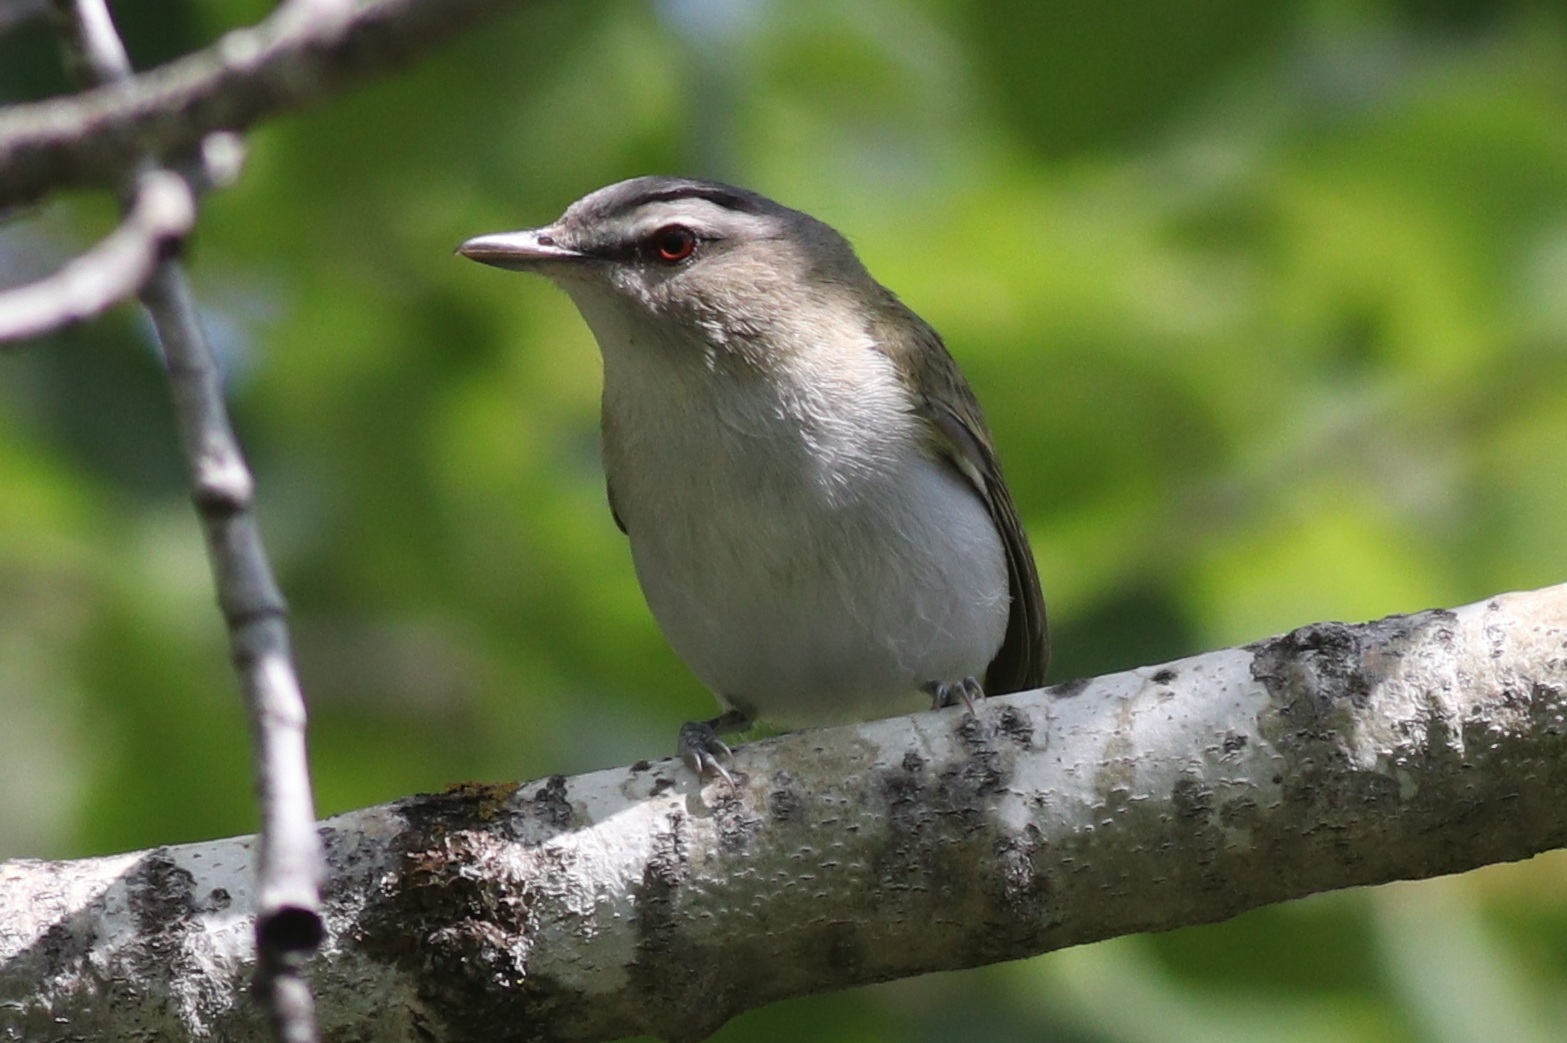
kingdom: Animalia
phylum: Chordata
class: Aves
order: Passeriformes
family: Vireonidae
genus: Vireo
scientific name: Vireo olivaceus
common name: Red-eyed vireo
